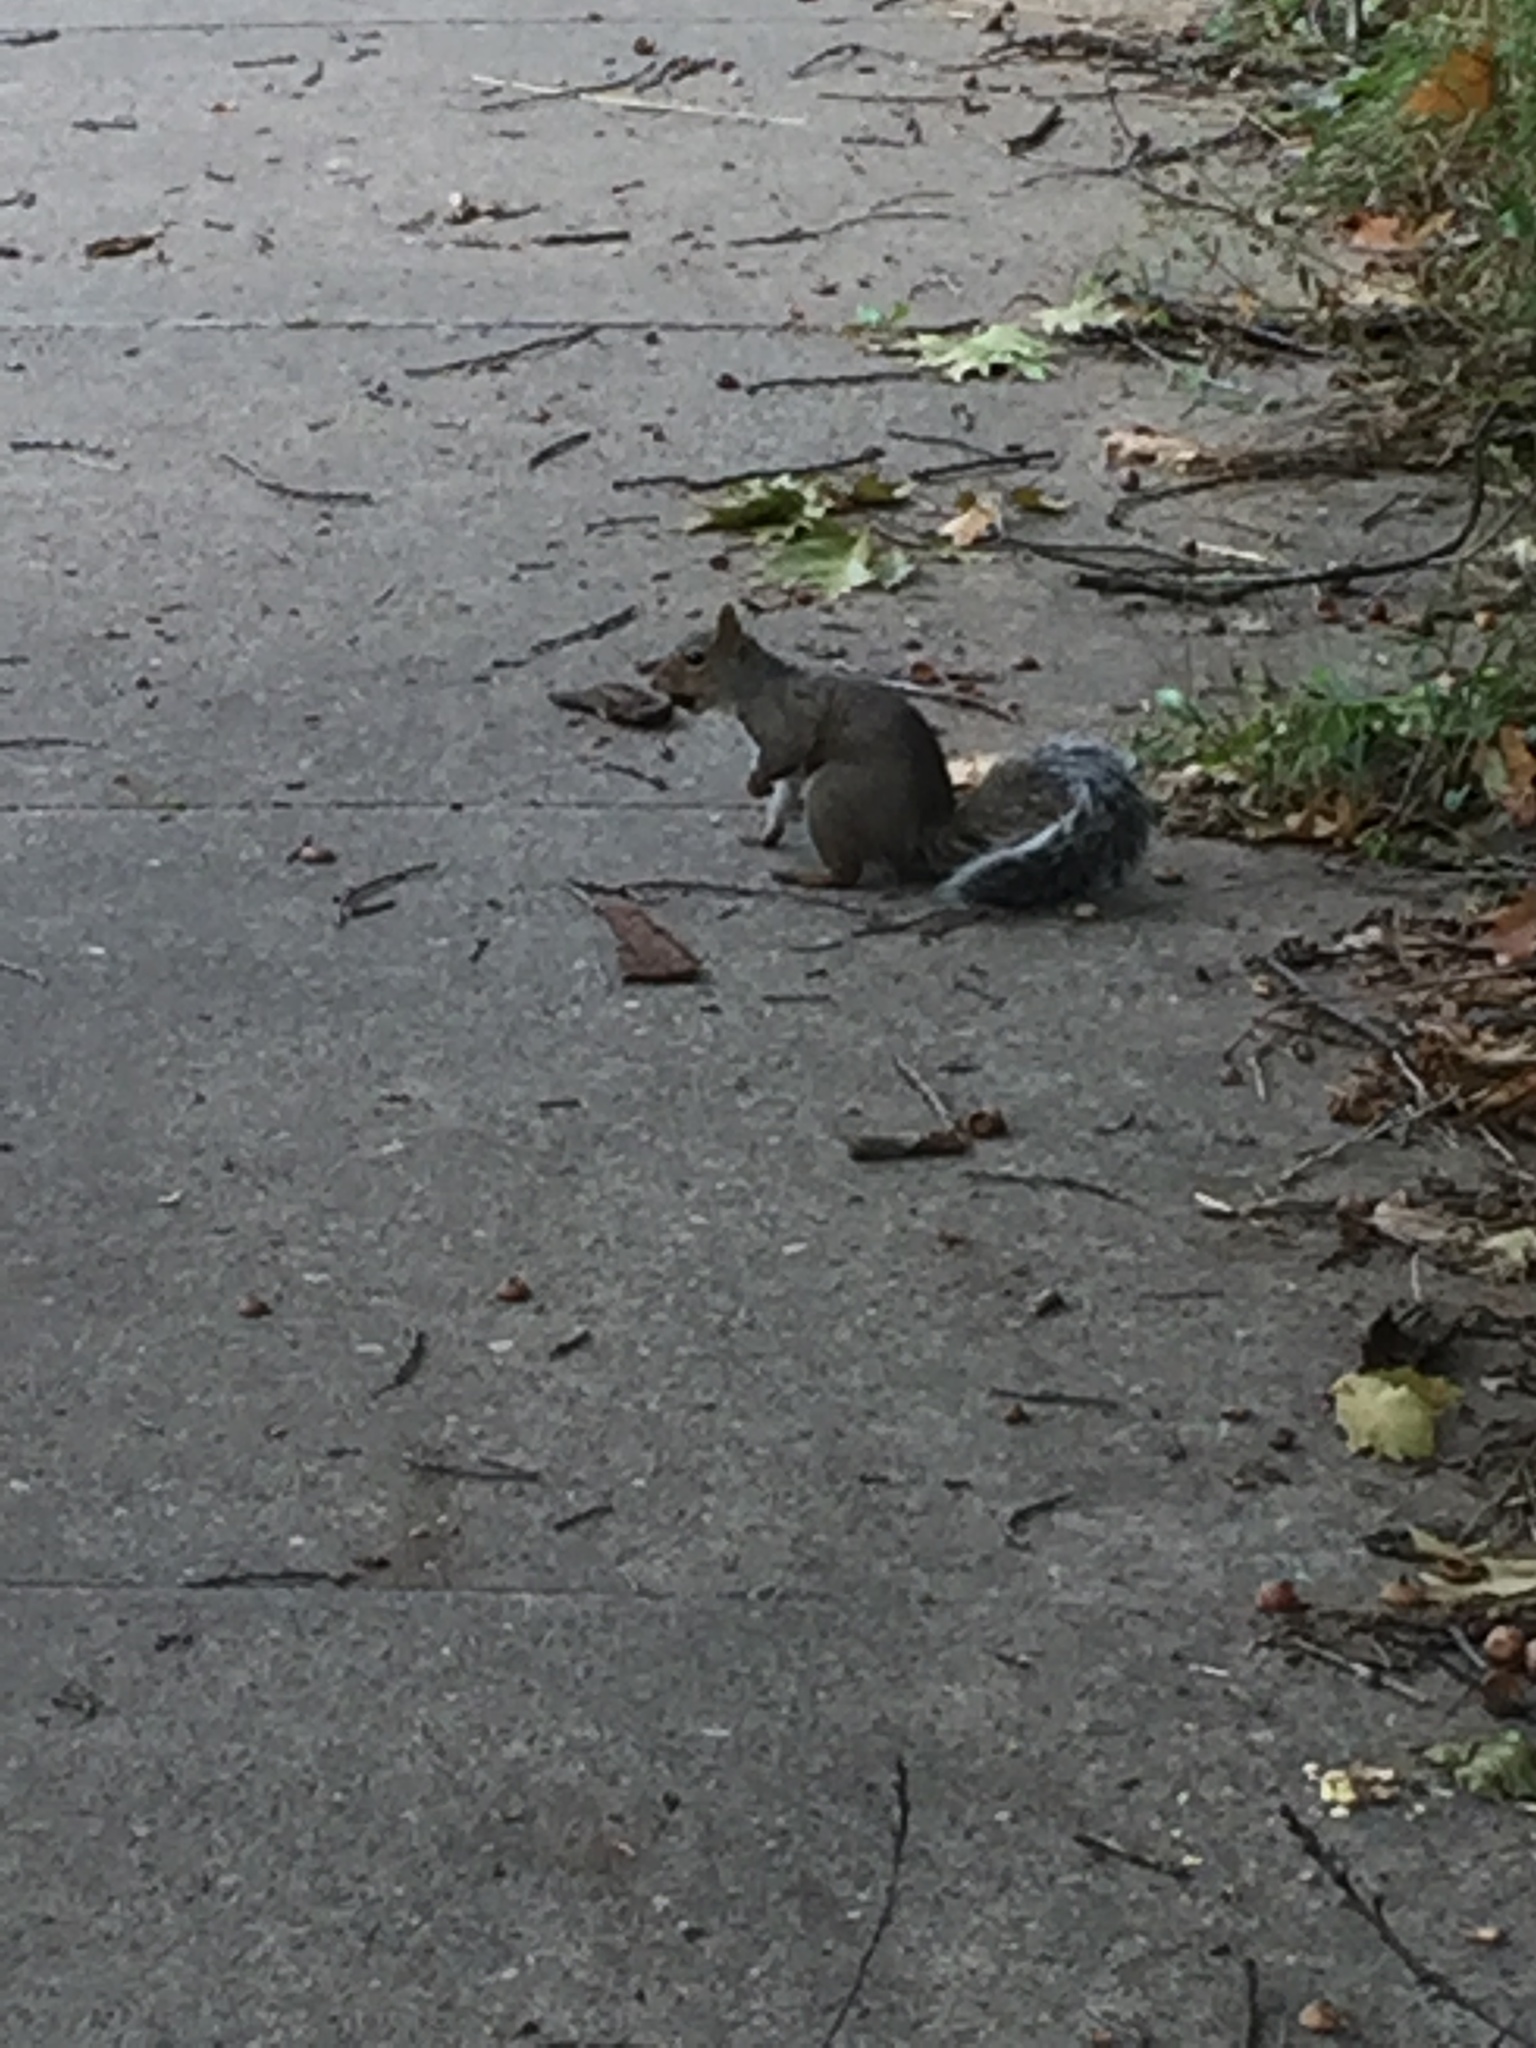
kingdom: Animalia
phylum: Chordata
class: Mammalia
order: Rodentia
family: Sciuridae
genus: Sciurus
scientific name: Sciurus carolinensis
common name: Eastern gray squirrel
